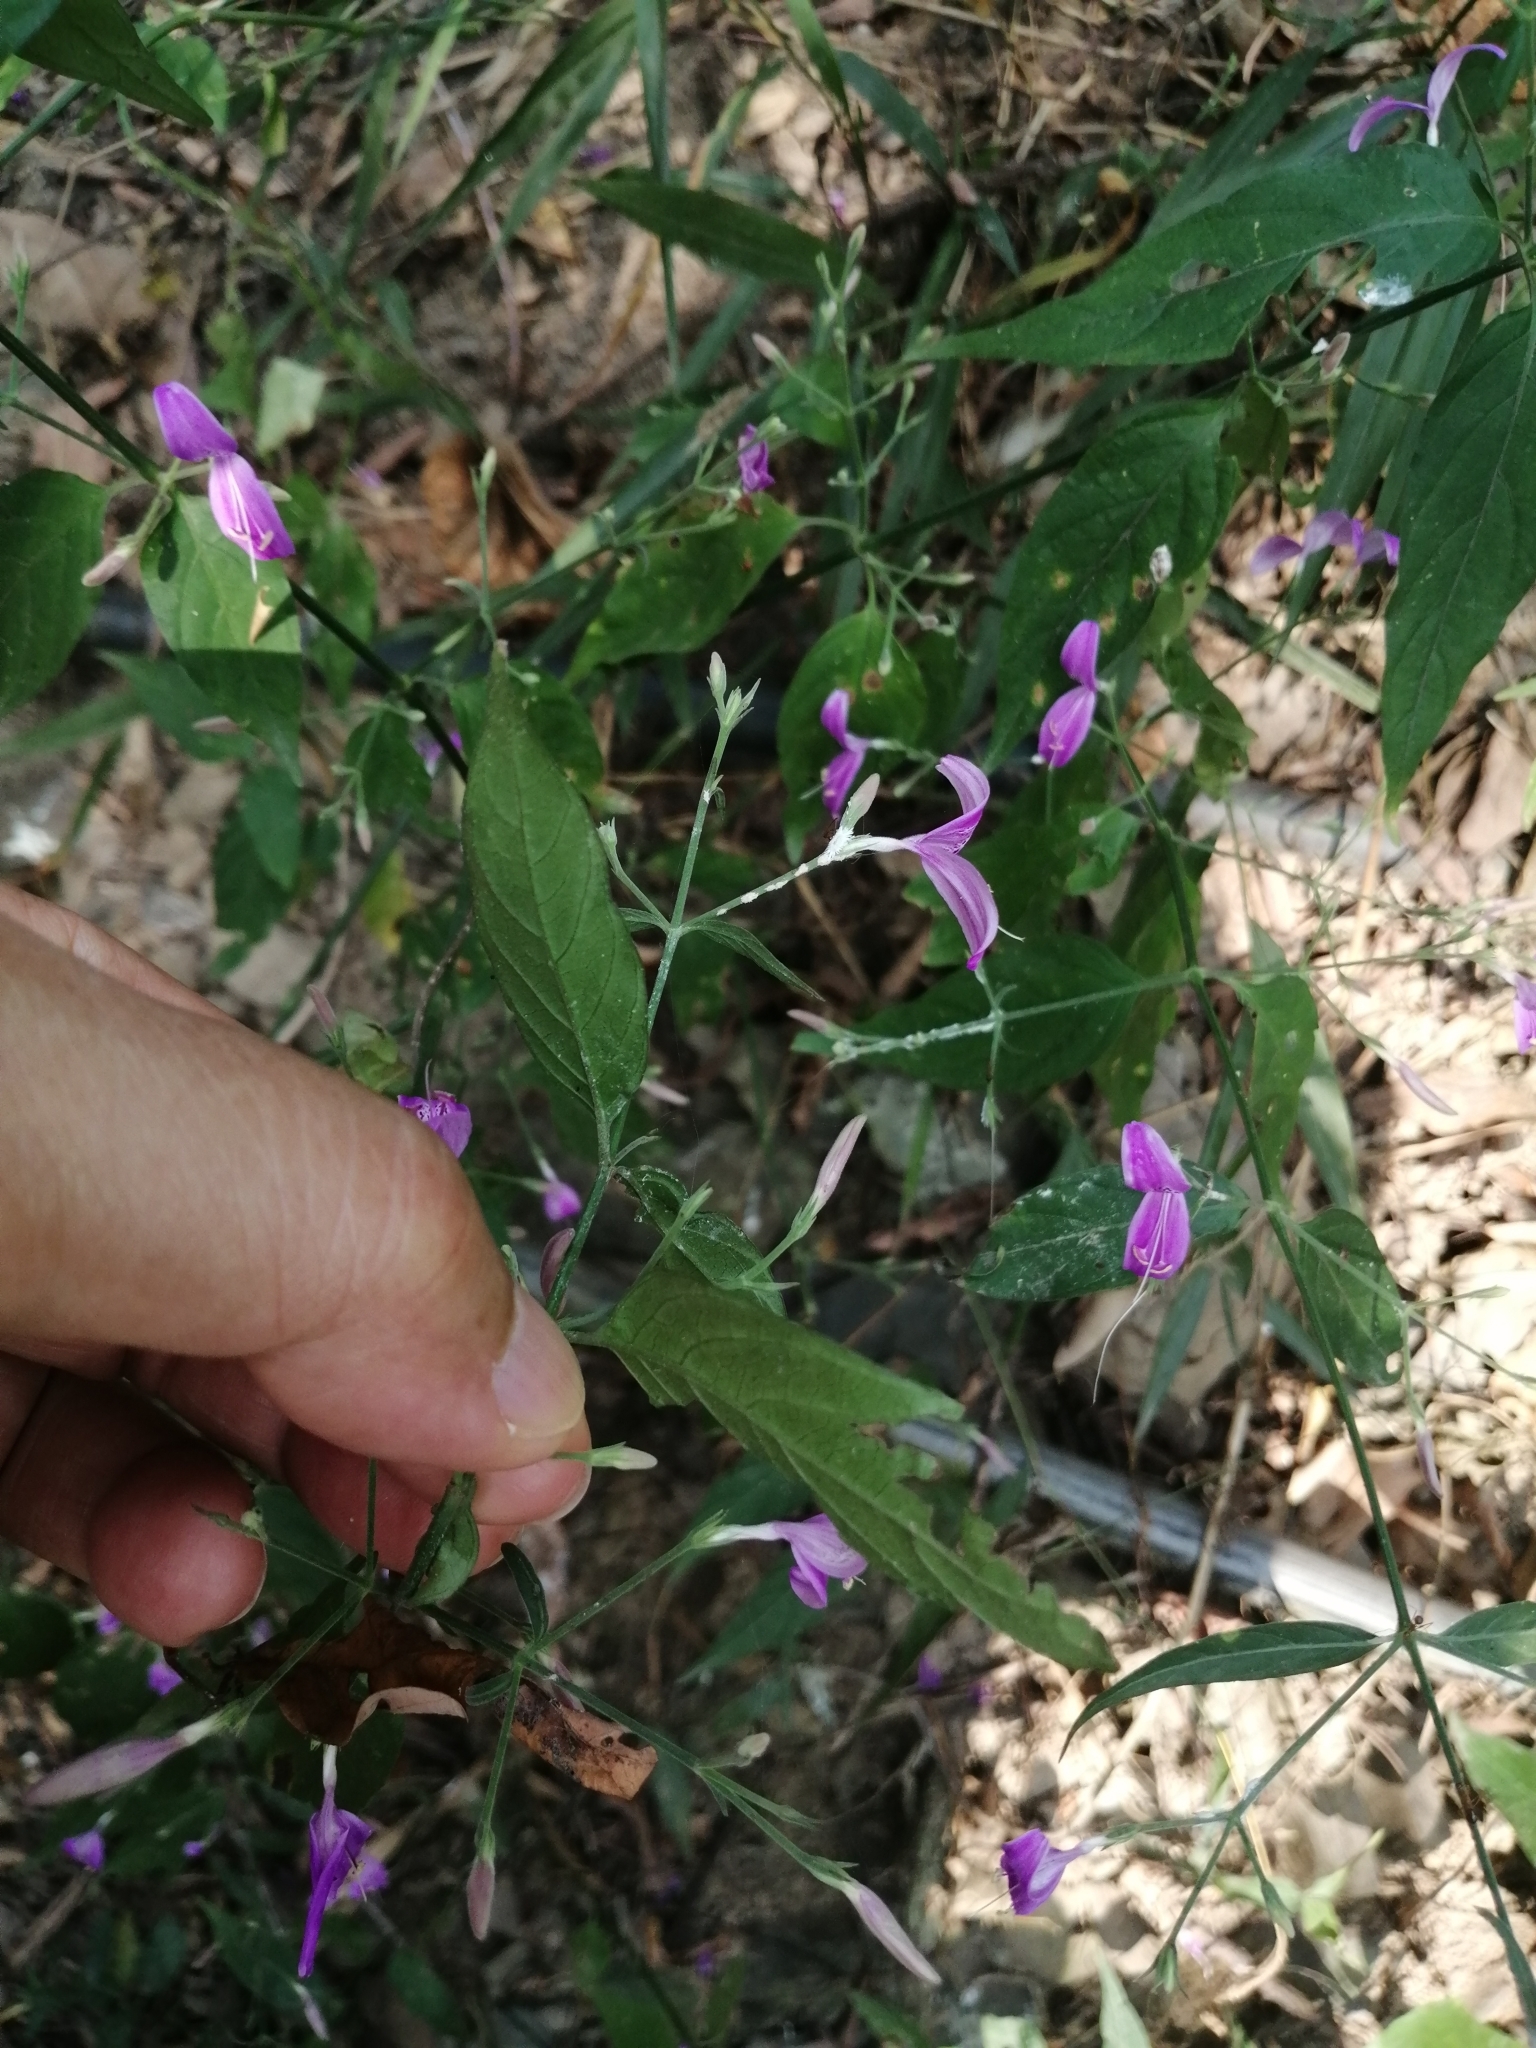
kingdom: Plantae
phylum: Tracheophyta
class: Magnoliopsida
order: Lamiales
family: Acanthaceae
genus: Hypoestes
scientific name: Hypoestes cumingiana
